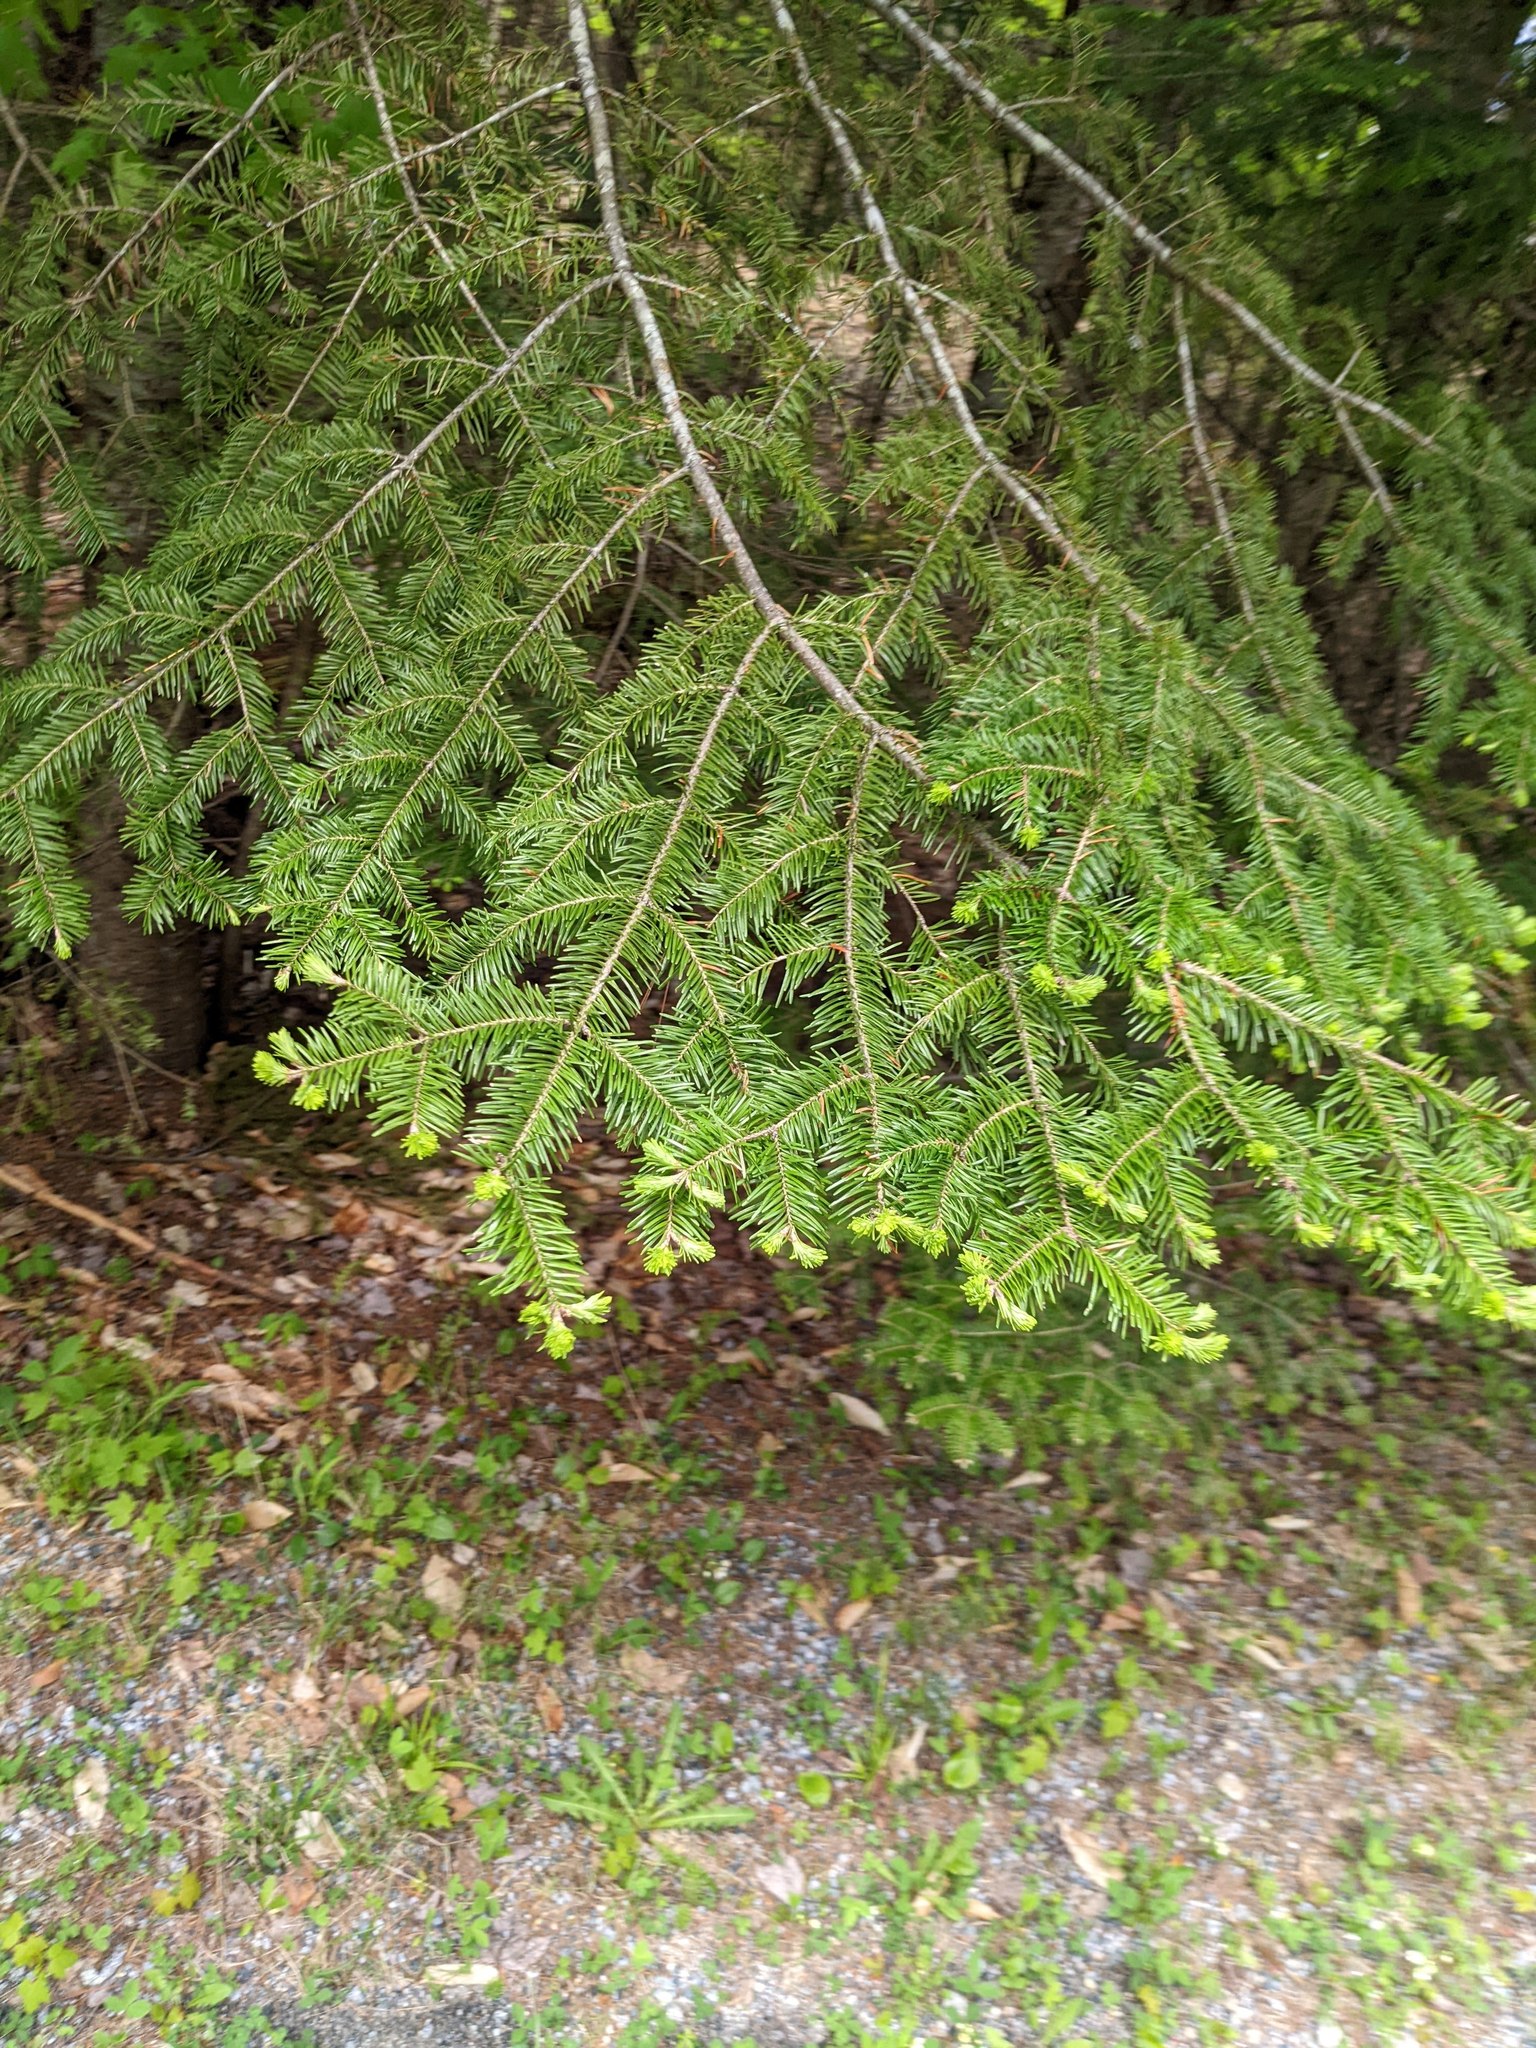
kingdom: Plantae
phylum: Tracheophyta
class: Pinopsida
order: Pinales
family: Pinaceae
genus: Abies
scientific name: Abies balsamea
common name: Balsam fir
